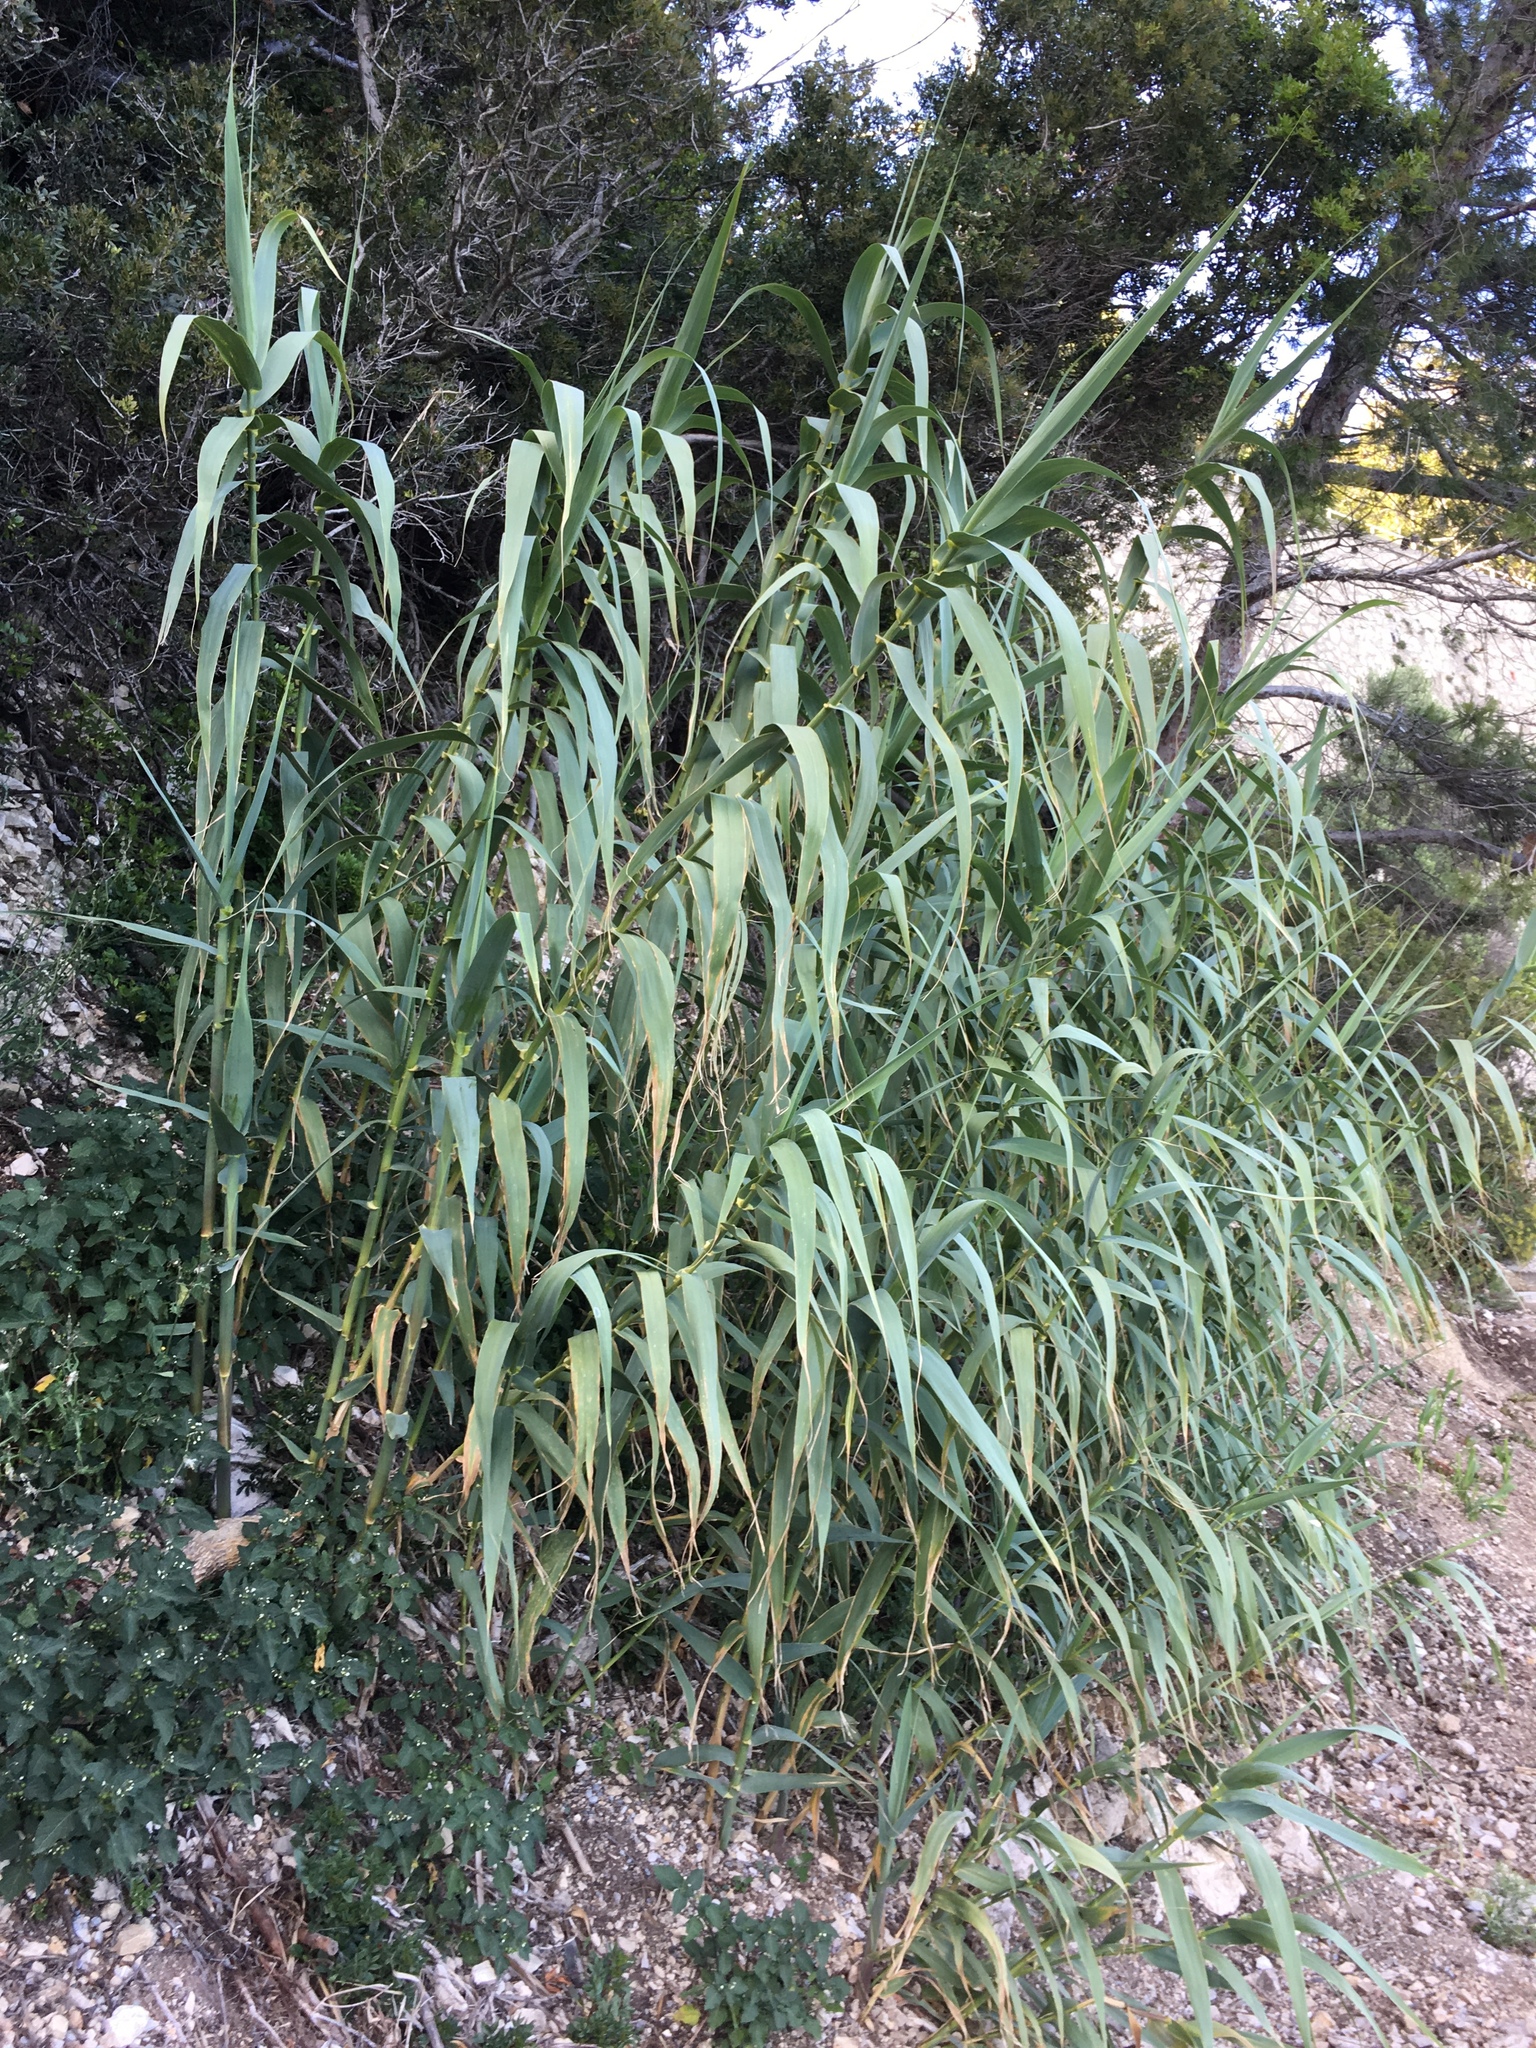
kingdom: Plantae
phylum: Tracheophyta
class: Liliopsida
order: Poales
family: Poaceae
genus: Arundo
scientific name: Arundo donax
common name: Giant reed
